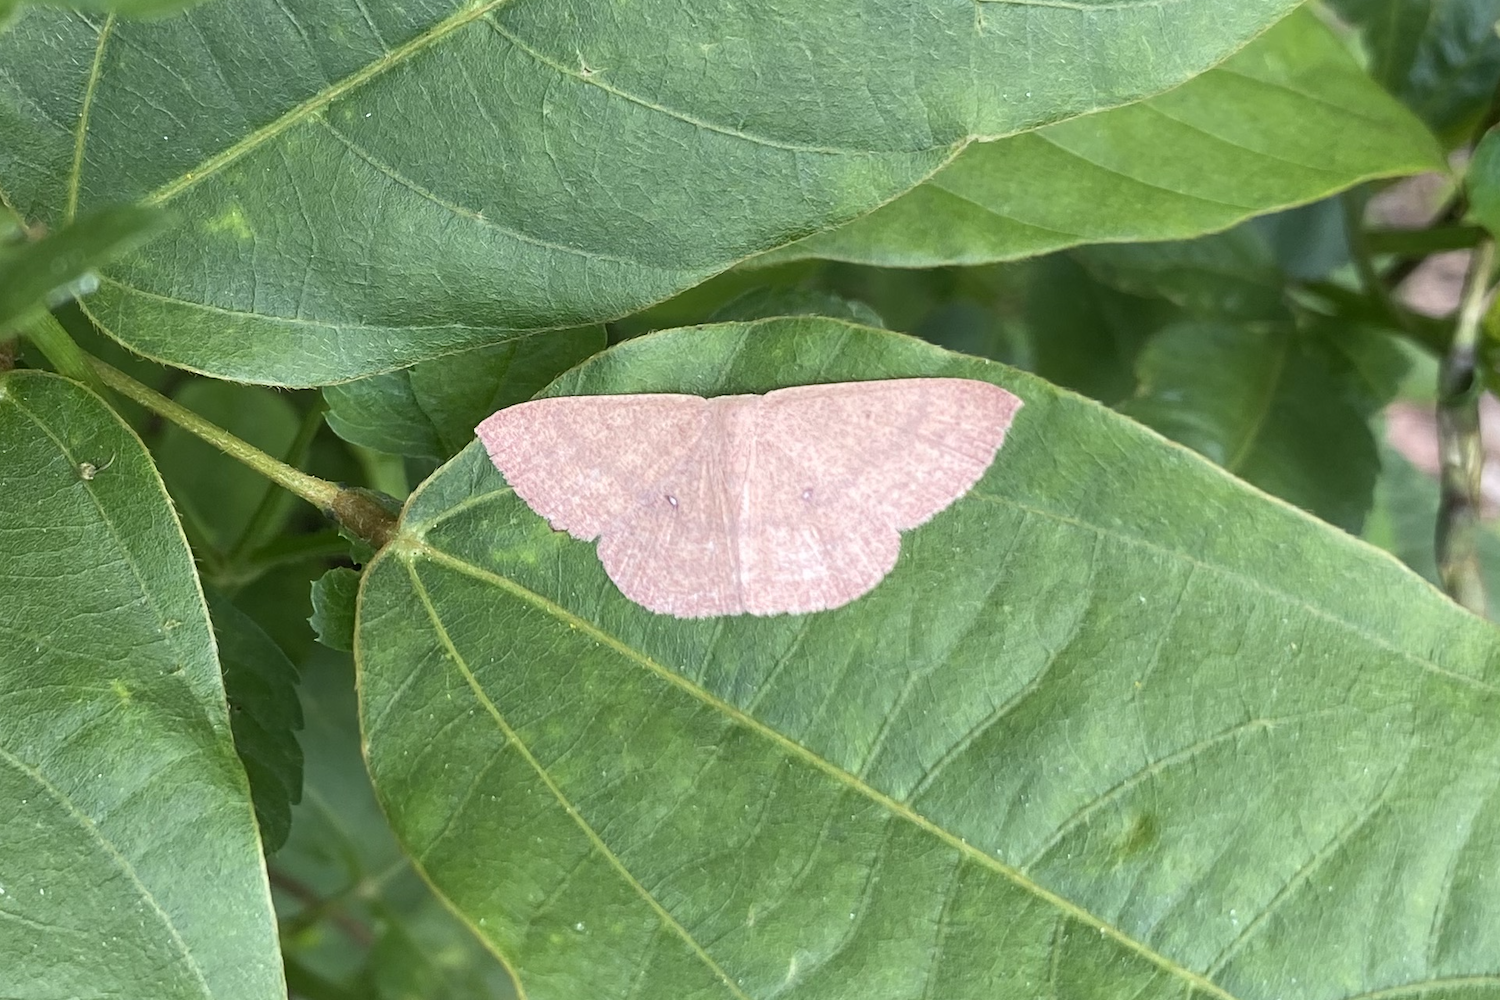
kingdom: Animalia
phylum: Arthropoda
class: Insecta
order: Lepidoptera
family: Geometridae
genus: Perixera
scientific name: Perixera absconditaria
